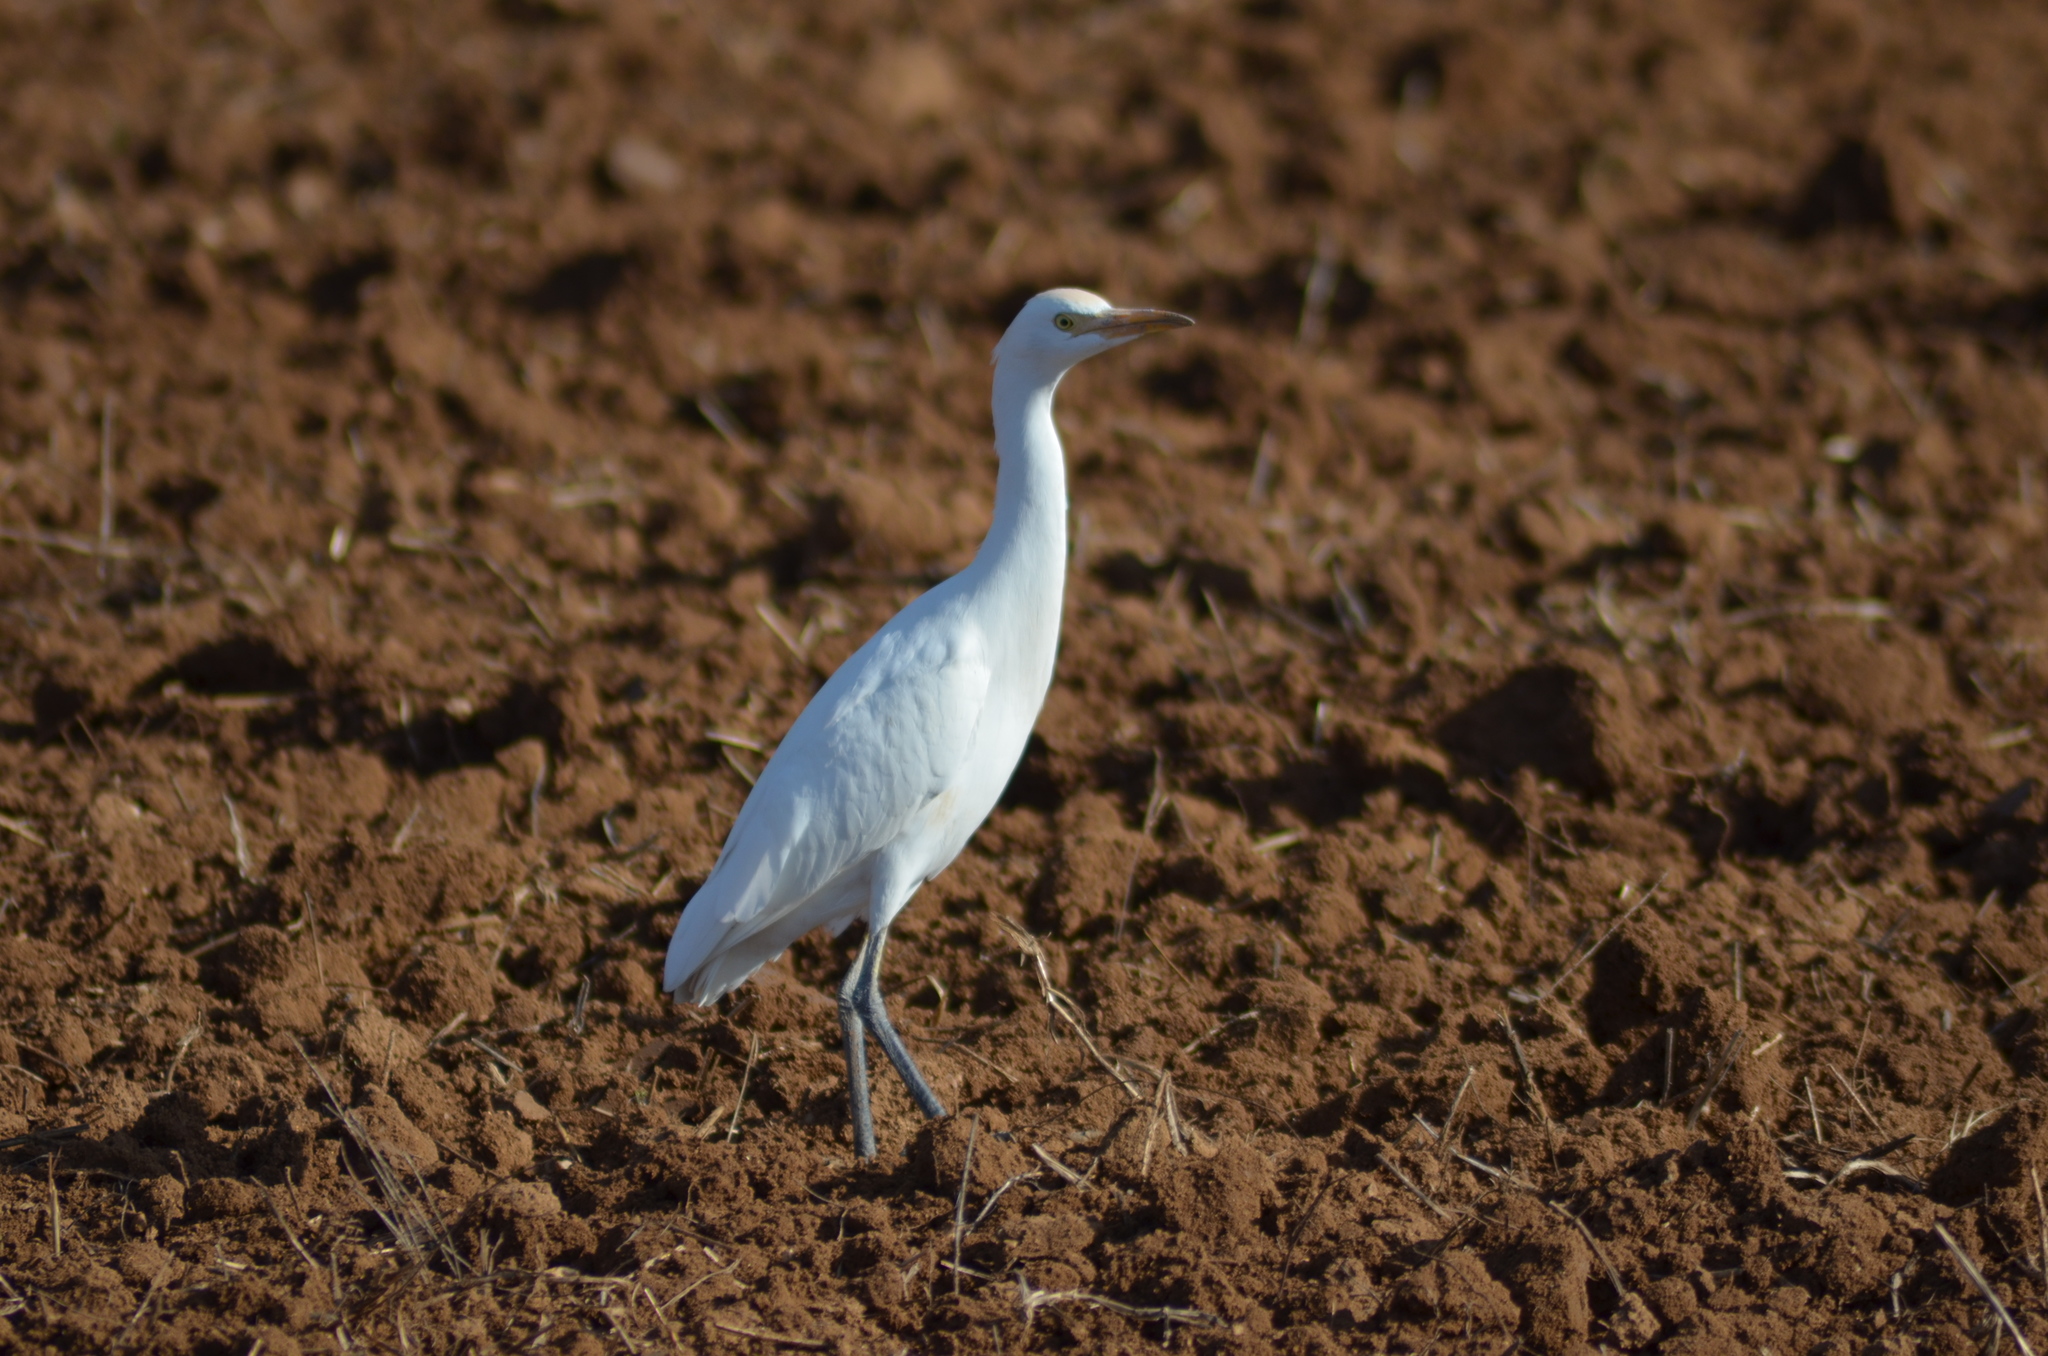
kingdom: Animalia
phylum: Chordata
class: Aves
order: Pelecaniformes
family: Ardeidae
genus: Bubulcus
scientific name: Bubulcus ibis
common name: Cattle egret
